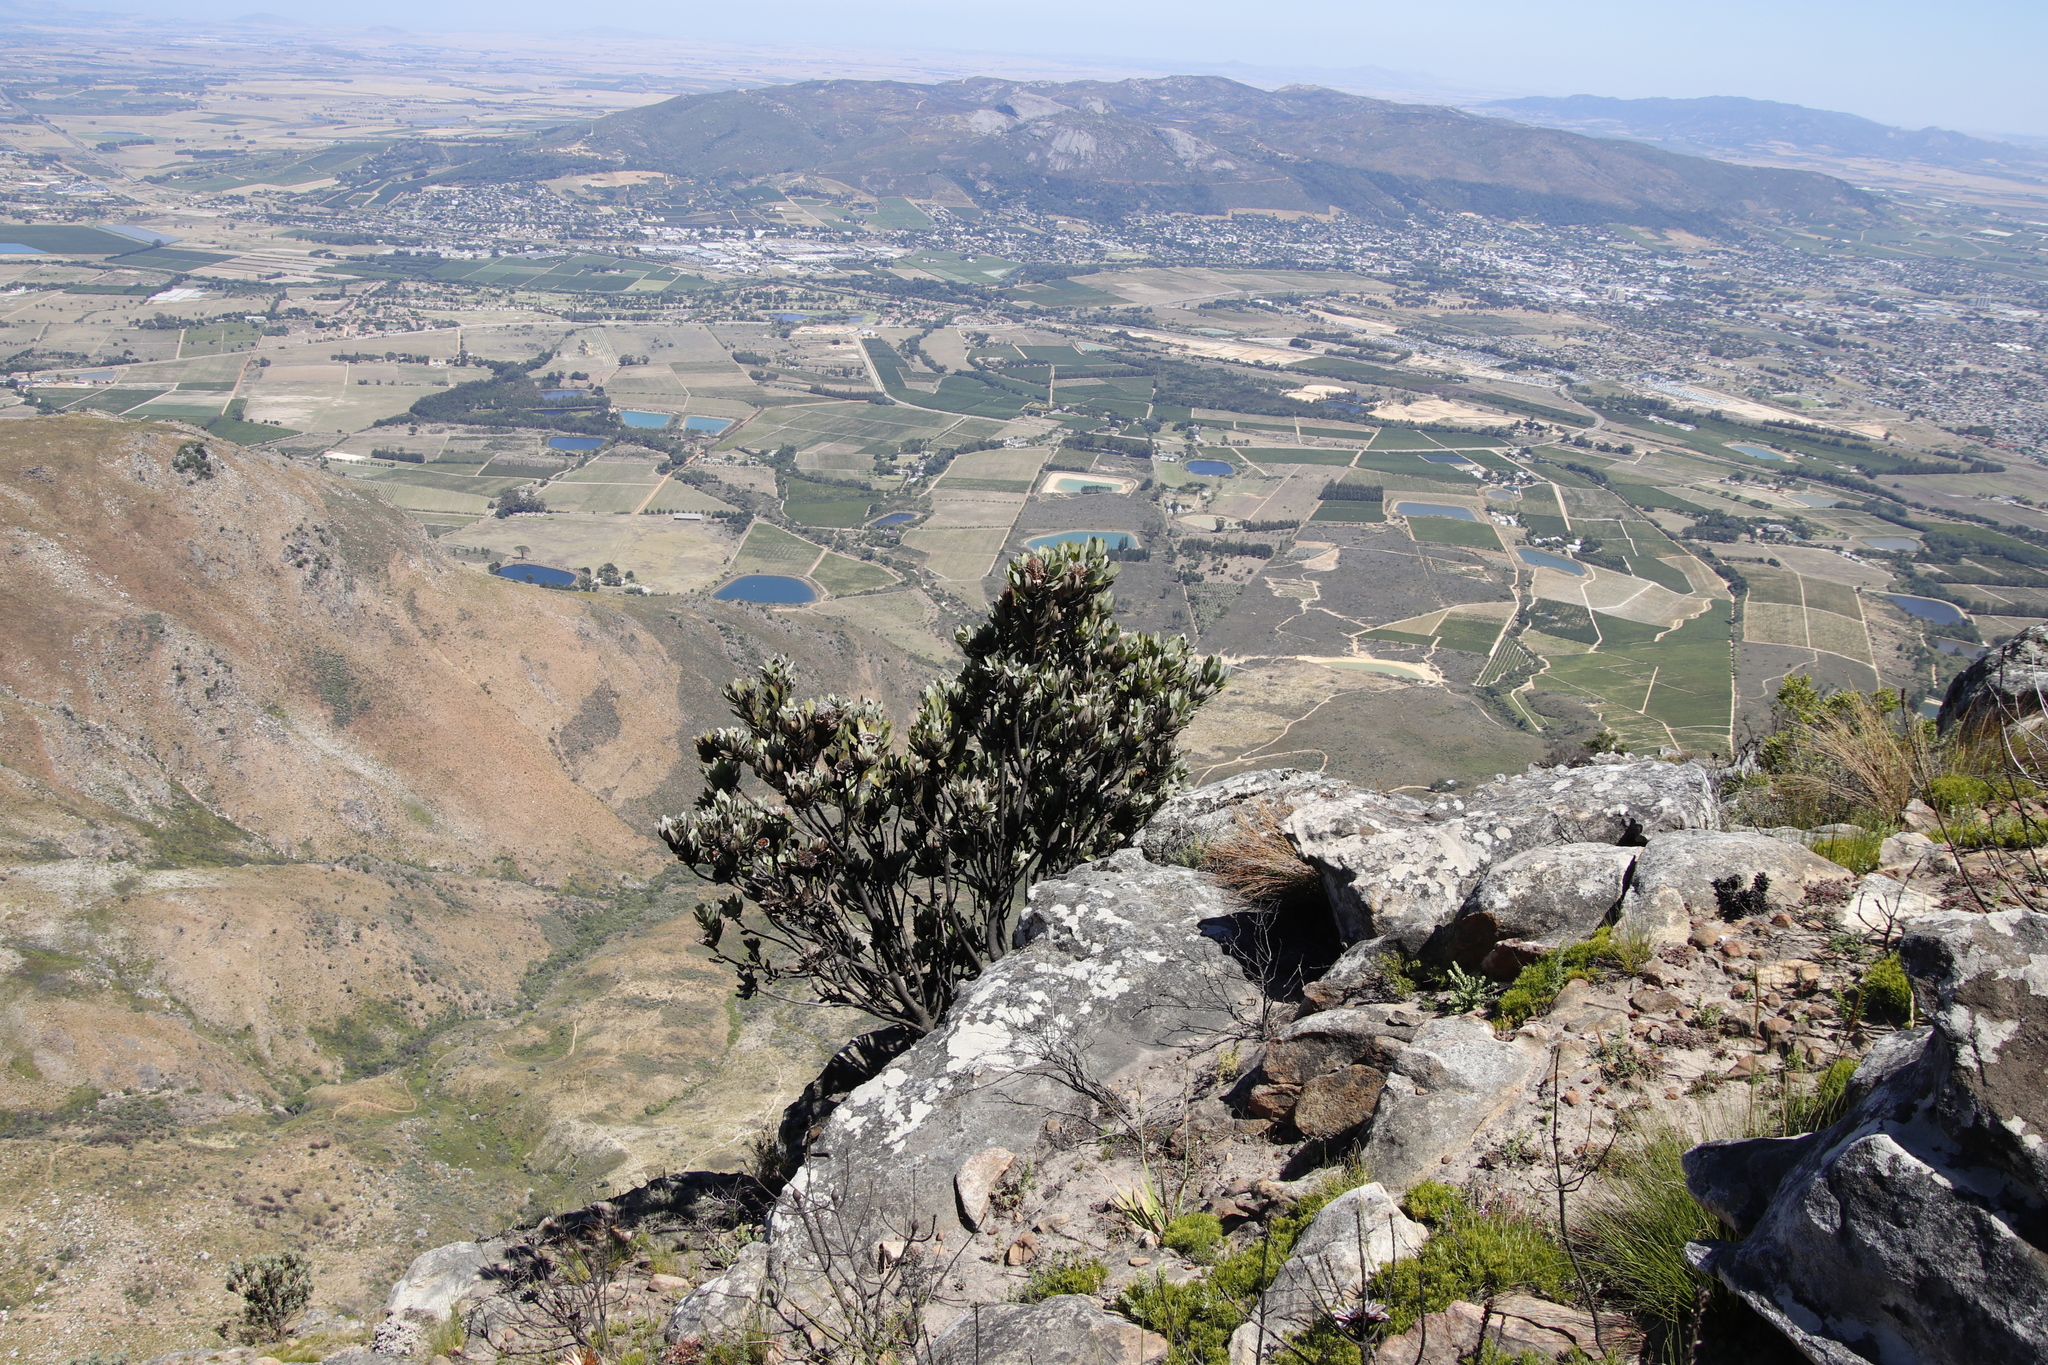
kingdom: Plantae
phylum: Tracheophyta
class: Magnoliopsida
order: Proteales
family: Proteaceae
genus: Protea
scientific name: Protea laurifolia
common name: Grey-leaf sugarbsh
